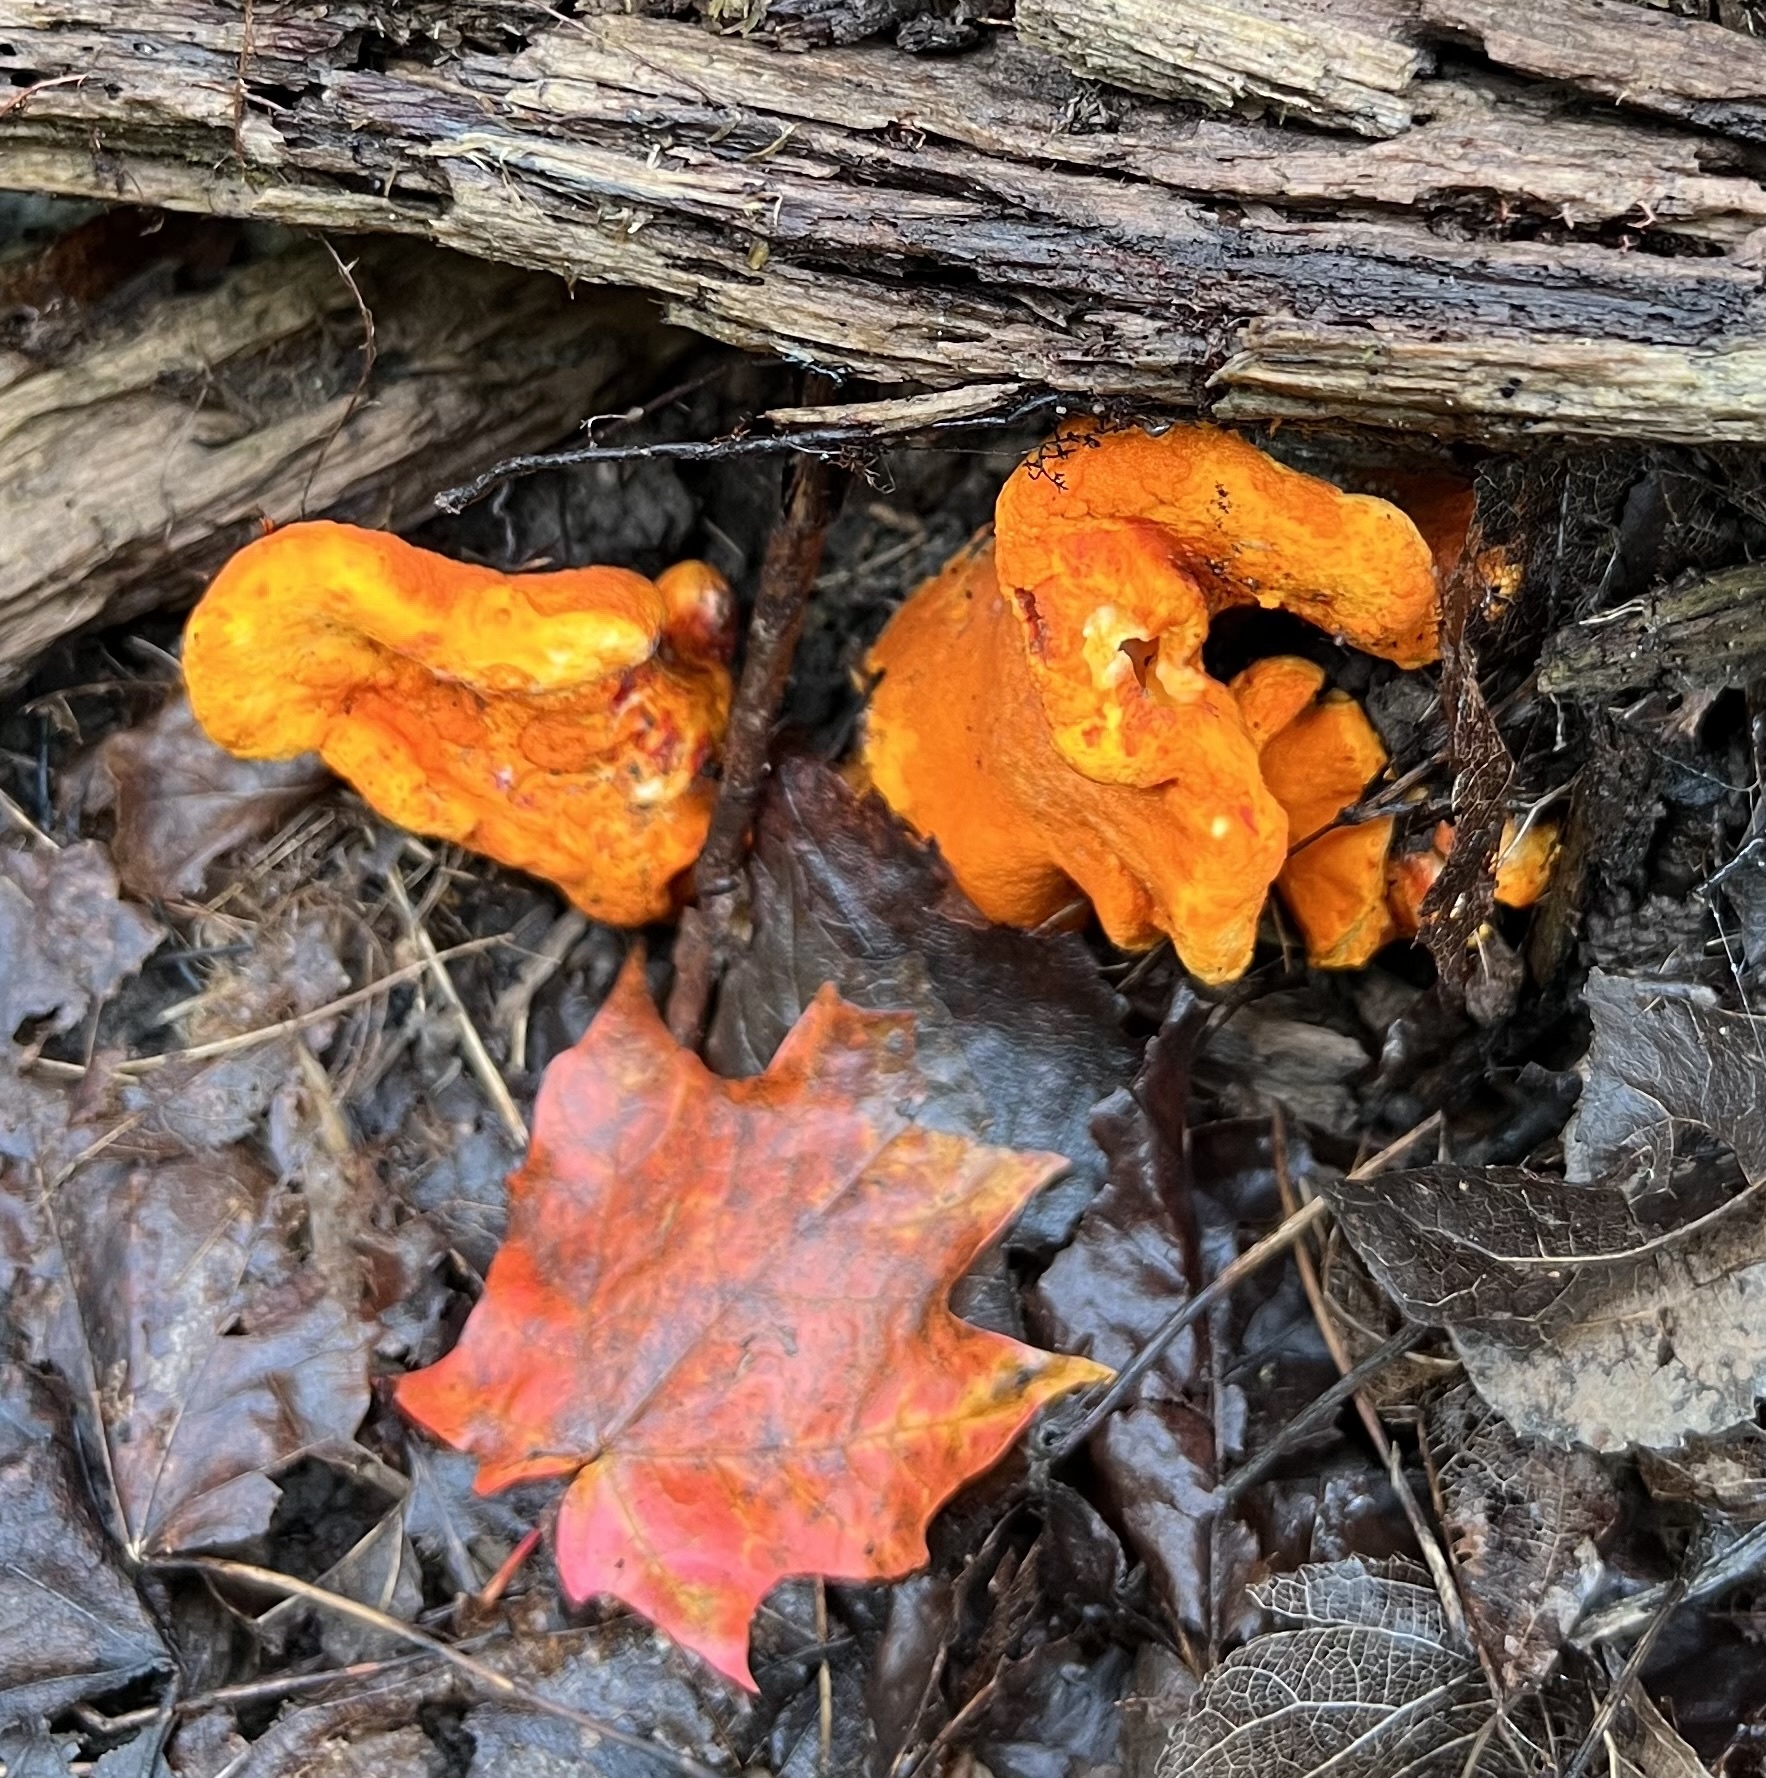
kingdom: Fungi
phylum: Ascomycota
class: Sordariomycetes
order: Hypocreales
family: Hypocreaceae
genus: Hypomyces
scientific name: Hypomyces lactifluorum
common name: Lobster mushroom
